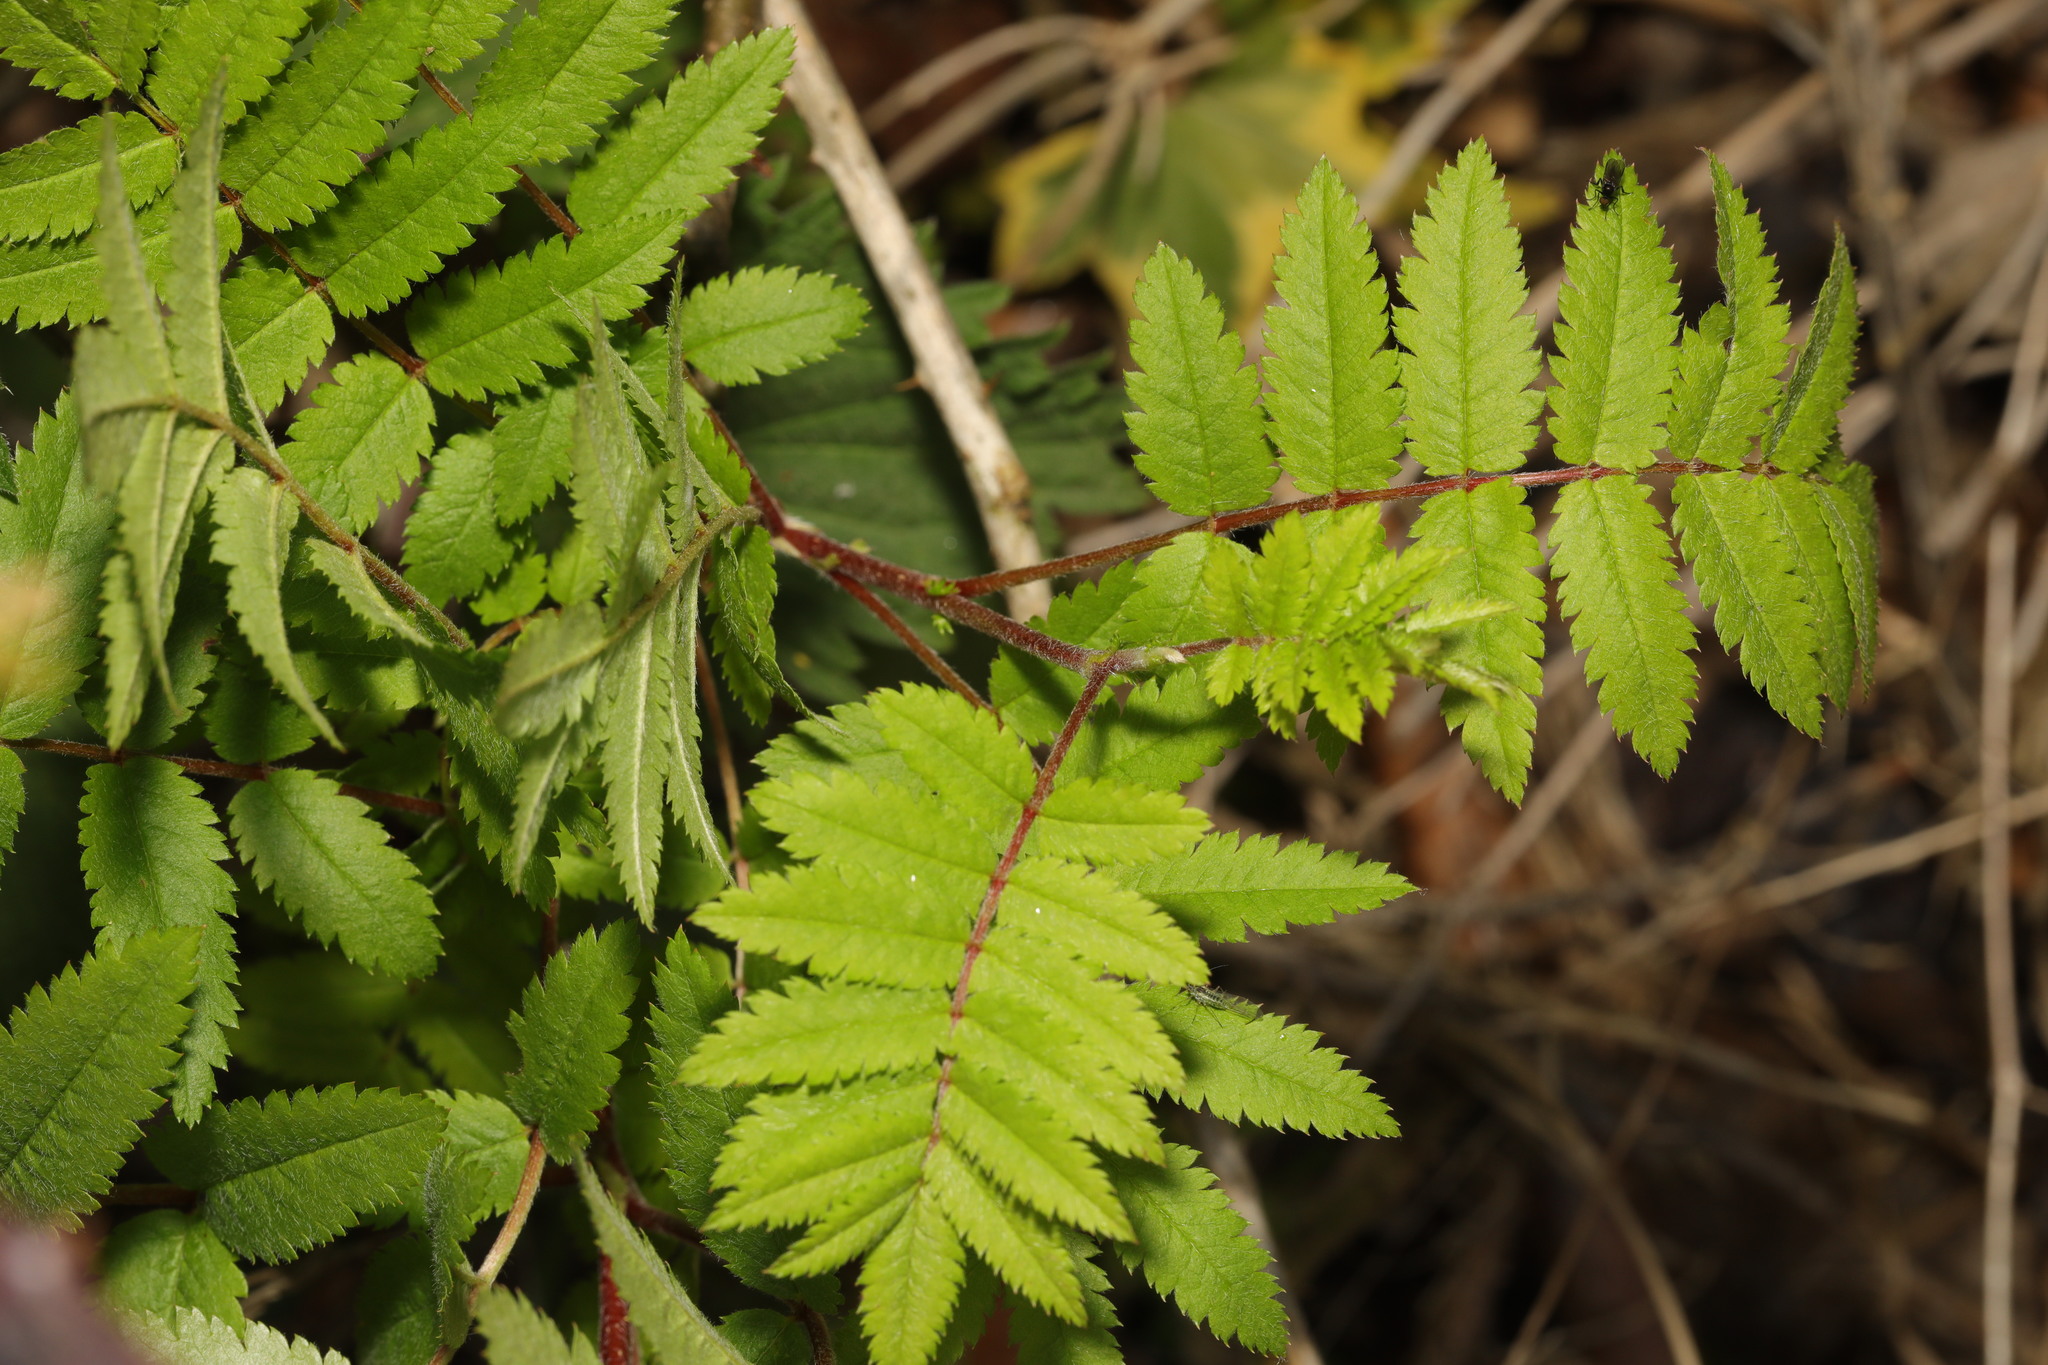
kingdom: Plantae
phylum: Tracheophyta
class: Magnoliopsida
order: Rosales
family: Rosaceae
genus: Sorbus
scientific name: Sorbus aucuparia
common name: Rowan
